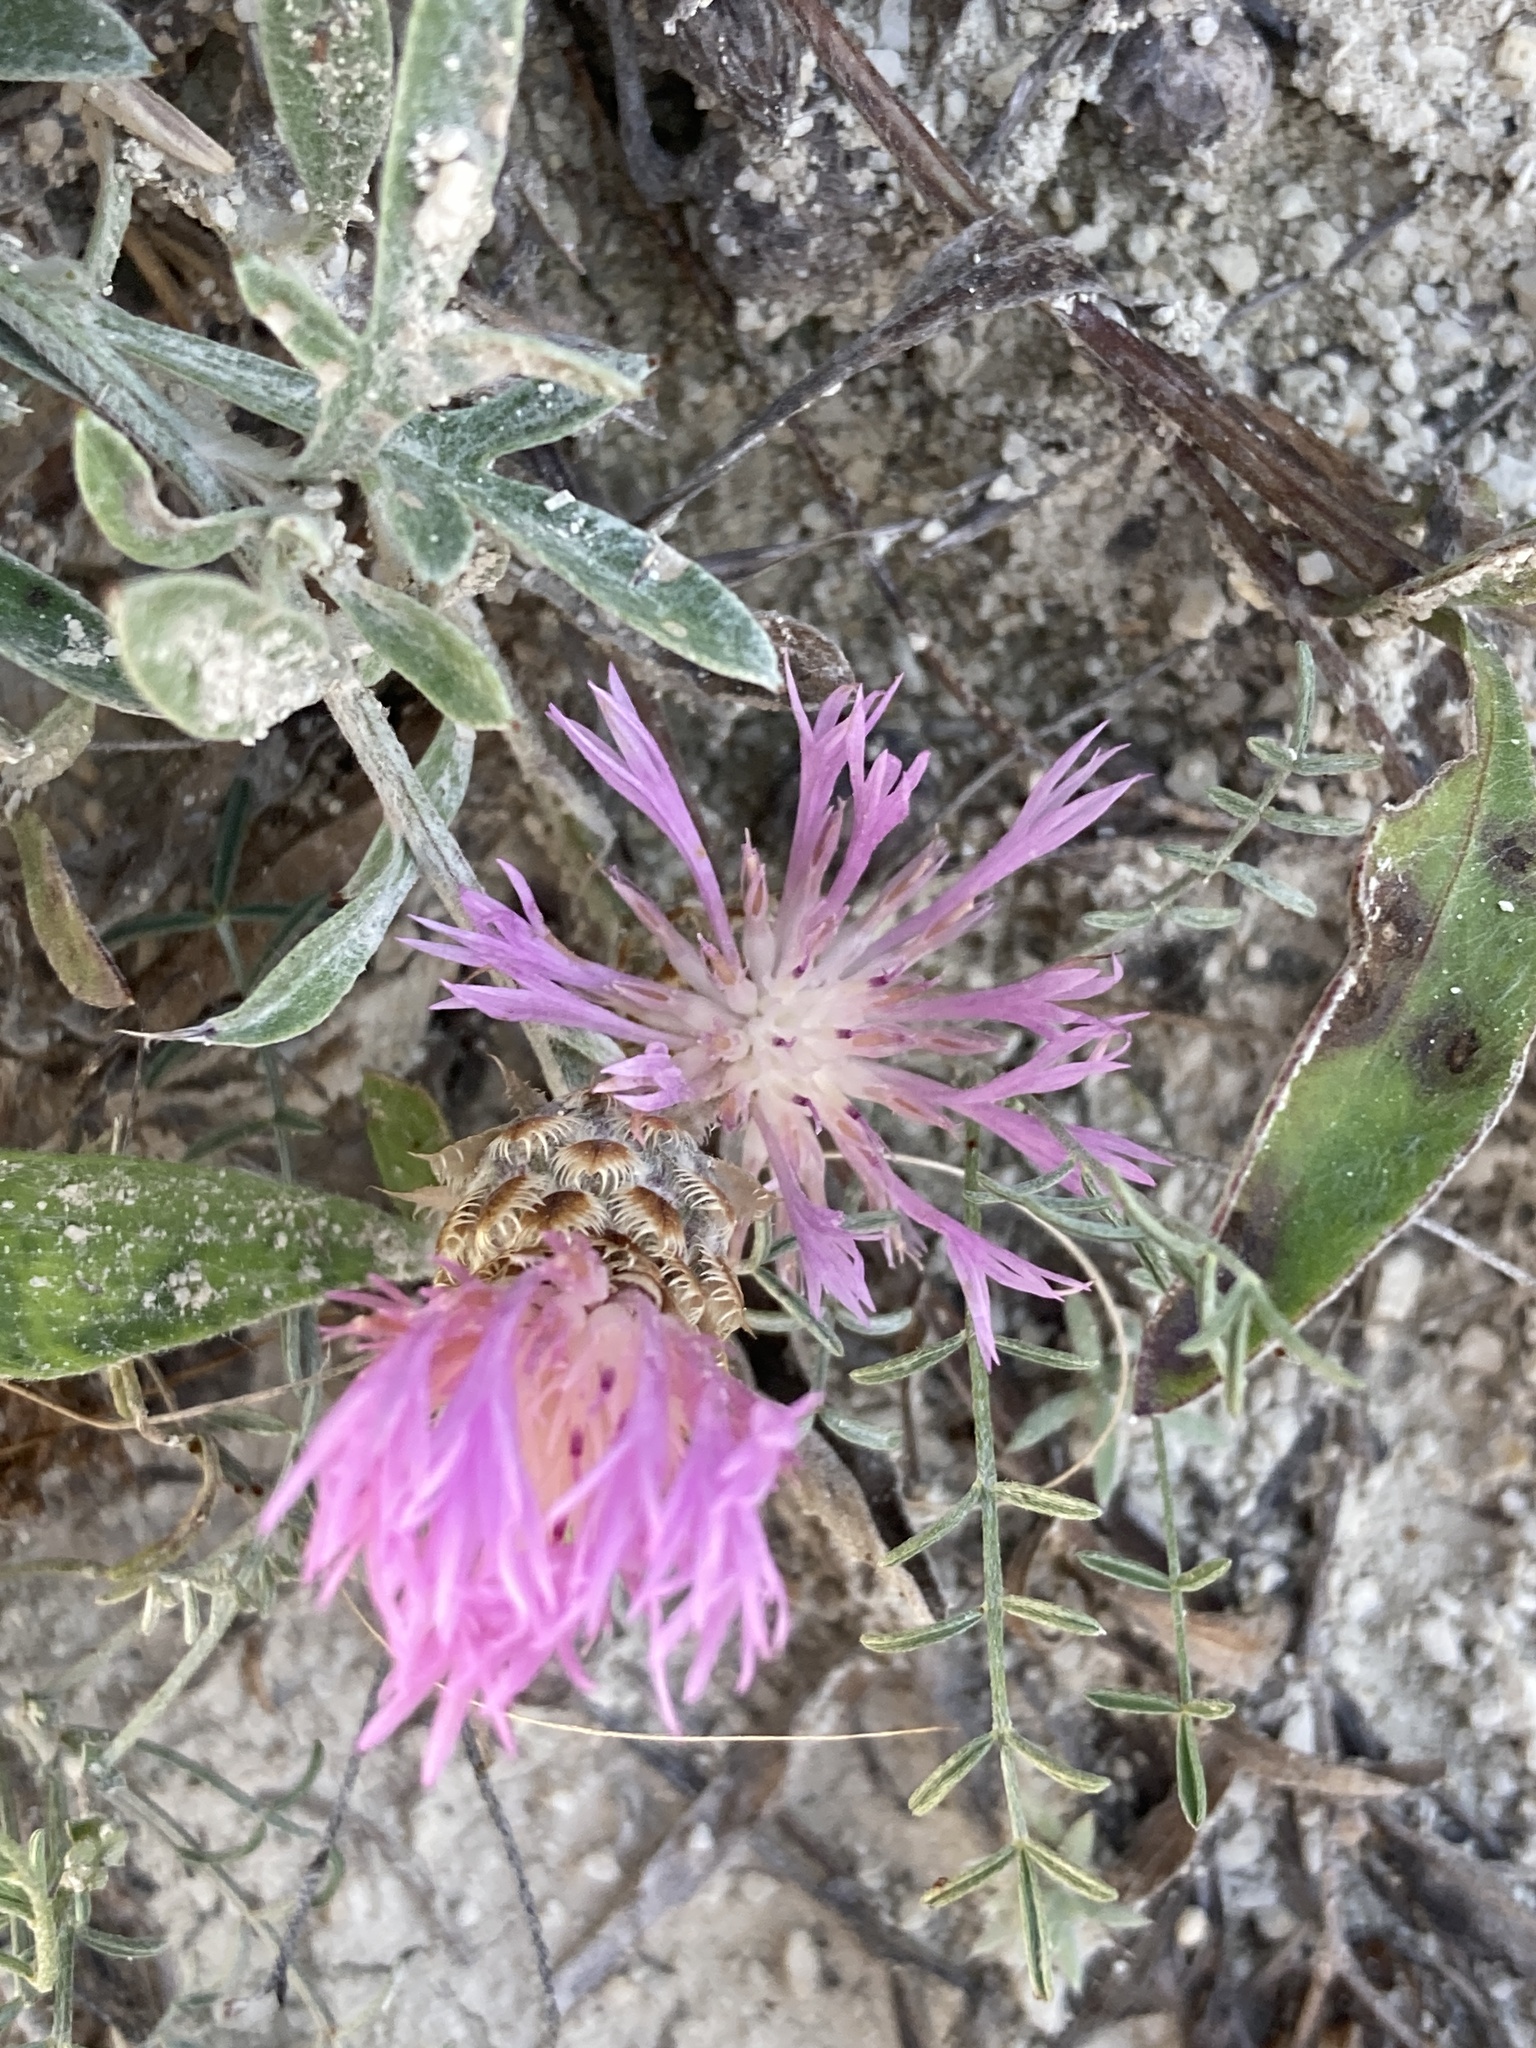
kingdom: Plantae
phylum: Tracheophyta
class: Magnoliopsida
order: Asterales
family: Asteraceae
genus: Psephellus
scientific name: Psephellus marschallianus
